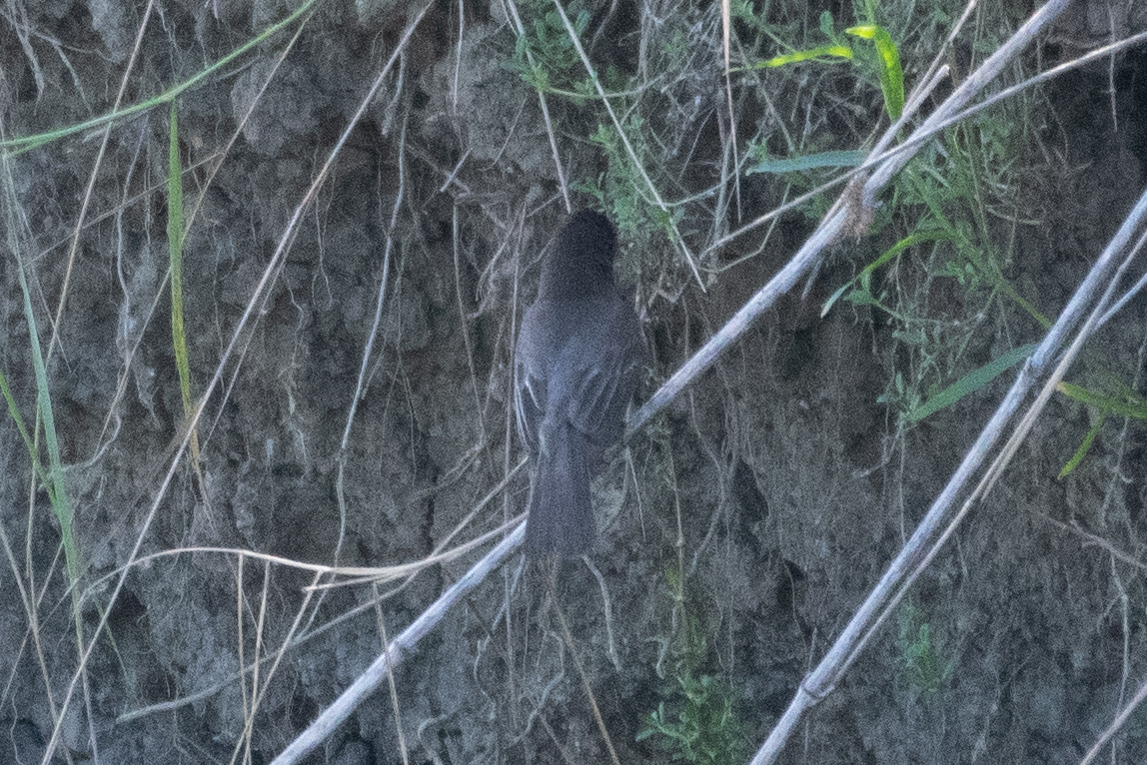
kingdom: Animalia
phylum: Chordata
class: Aves
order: Passeriformes
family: Tyrannidae
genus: Sayornis
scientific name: Sayornis nigricans
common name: Black phoebe
